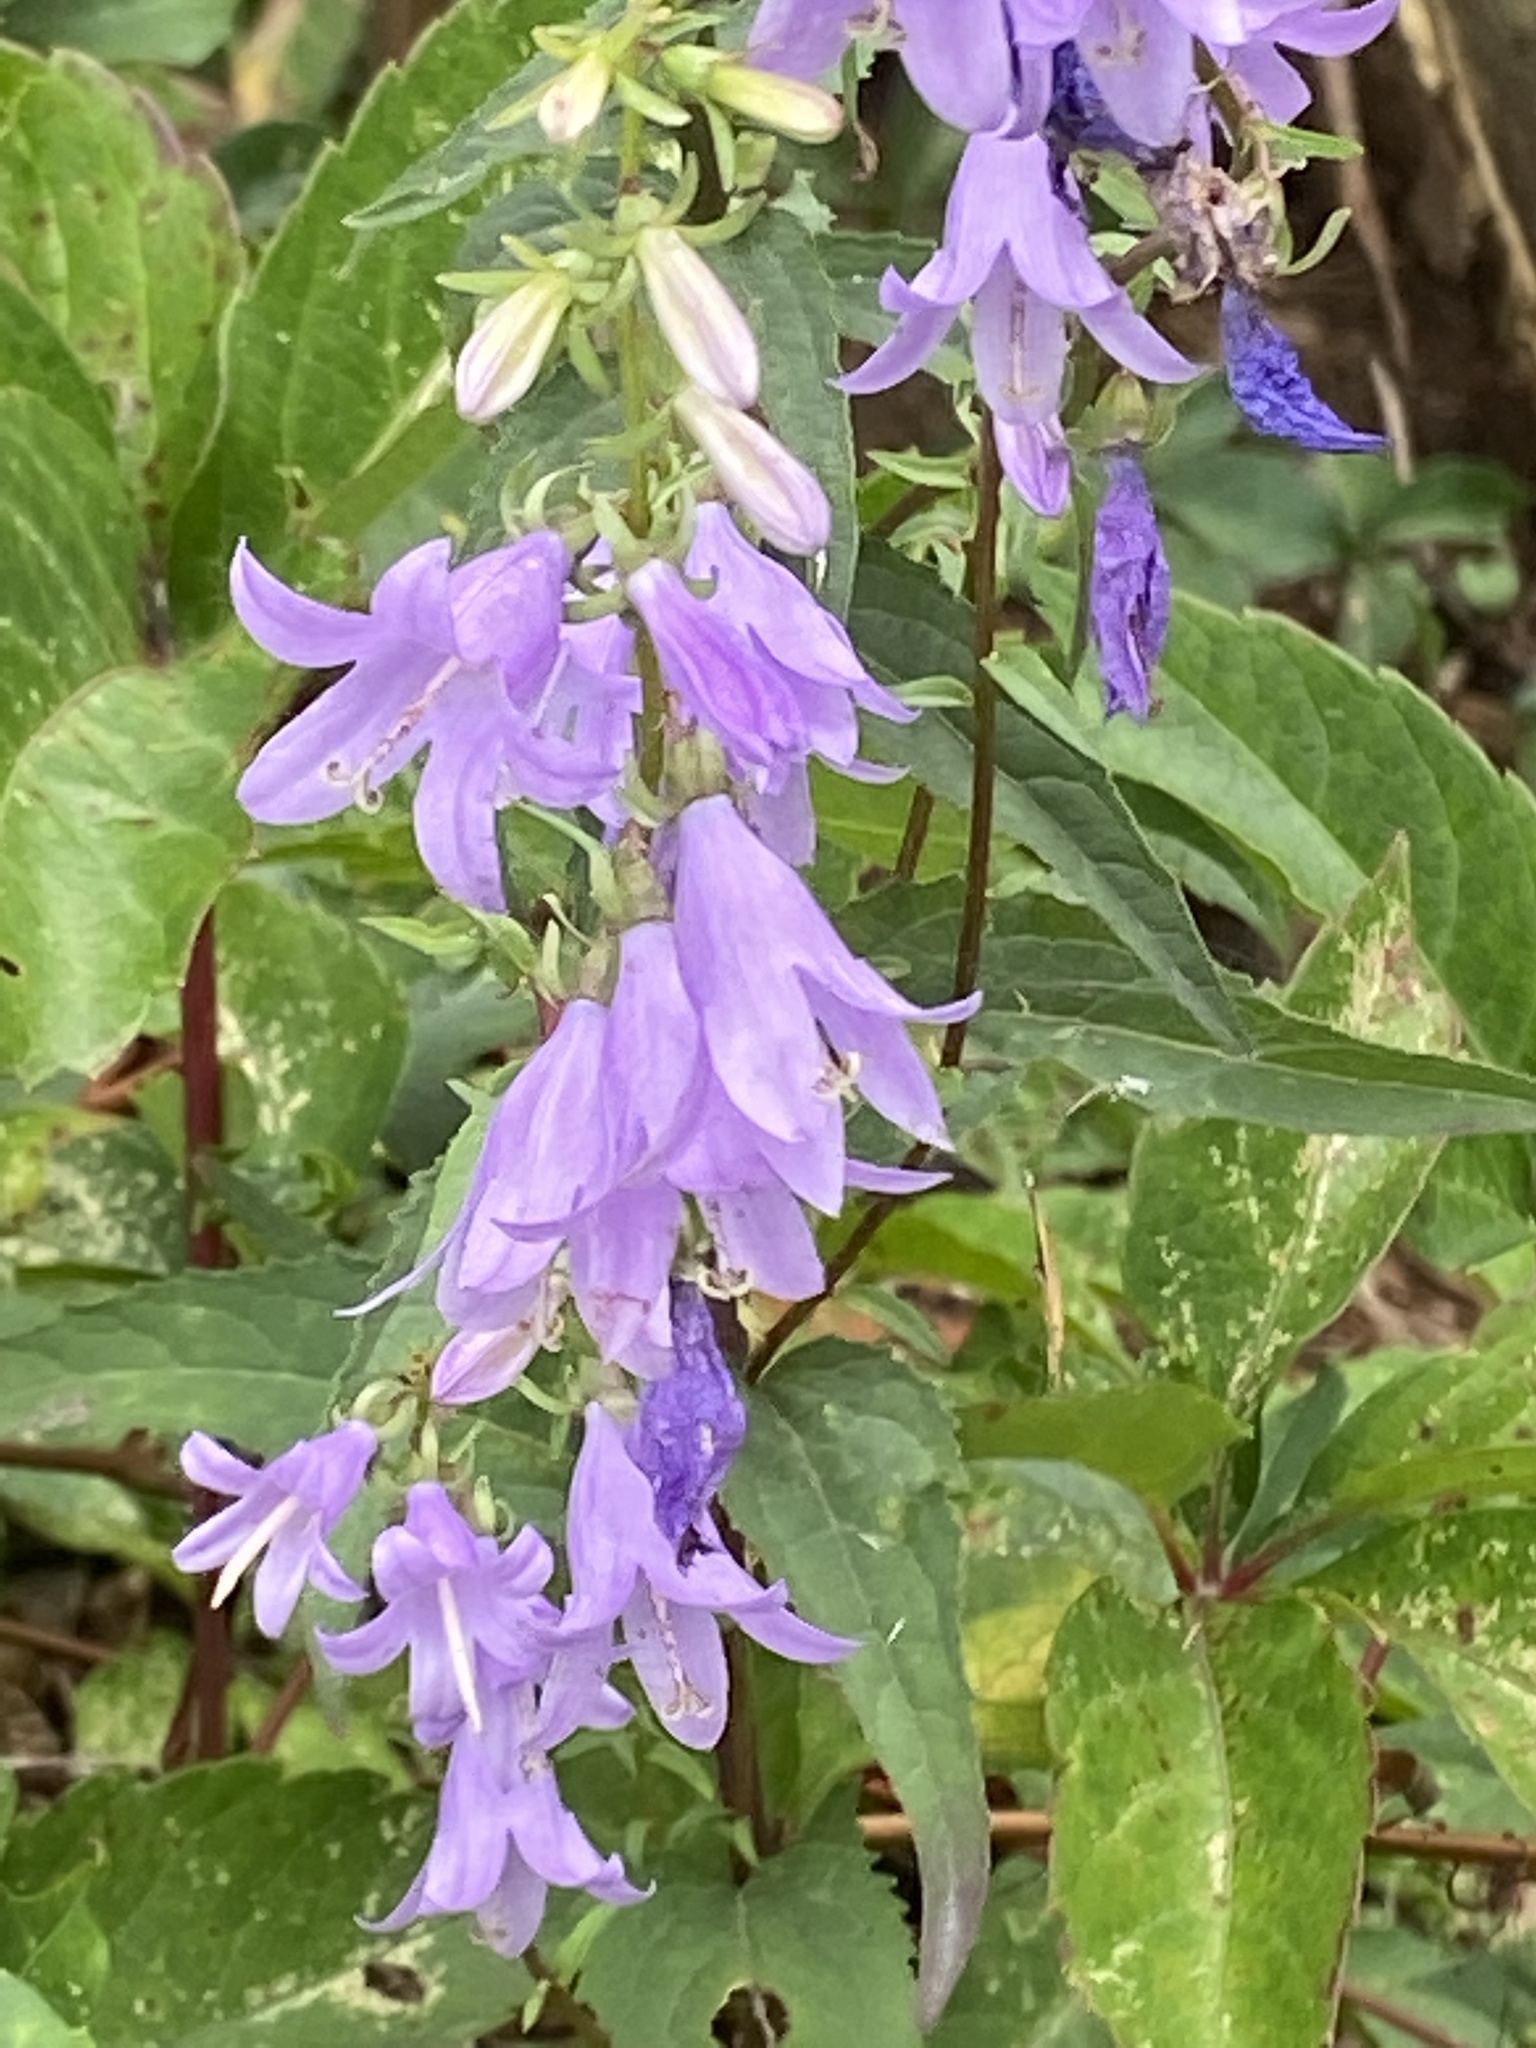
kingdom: Plantae
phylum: Tracheophyta
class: Magnoliopsida
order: Asterales
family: Campanulaceae
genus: Campanula
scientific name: Campanula rapunculoides
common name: Creeping bellflower
